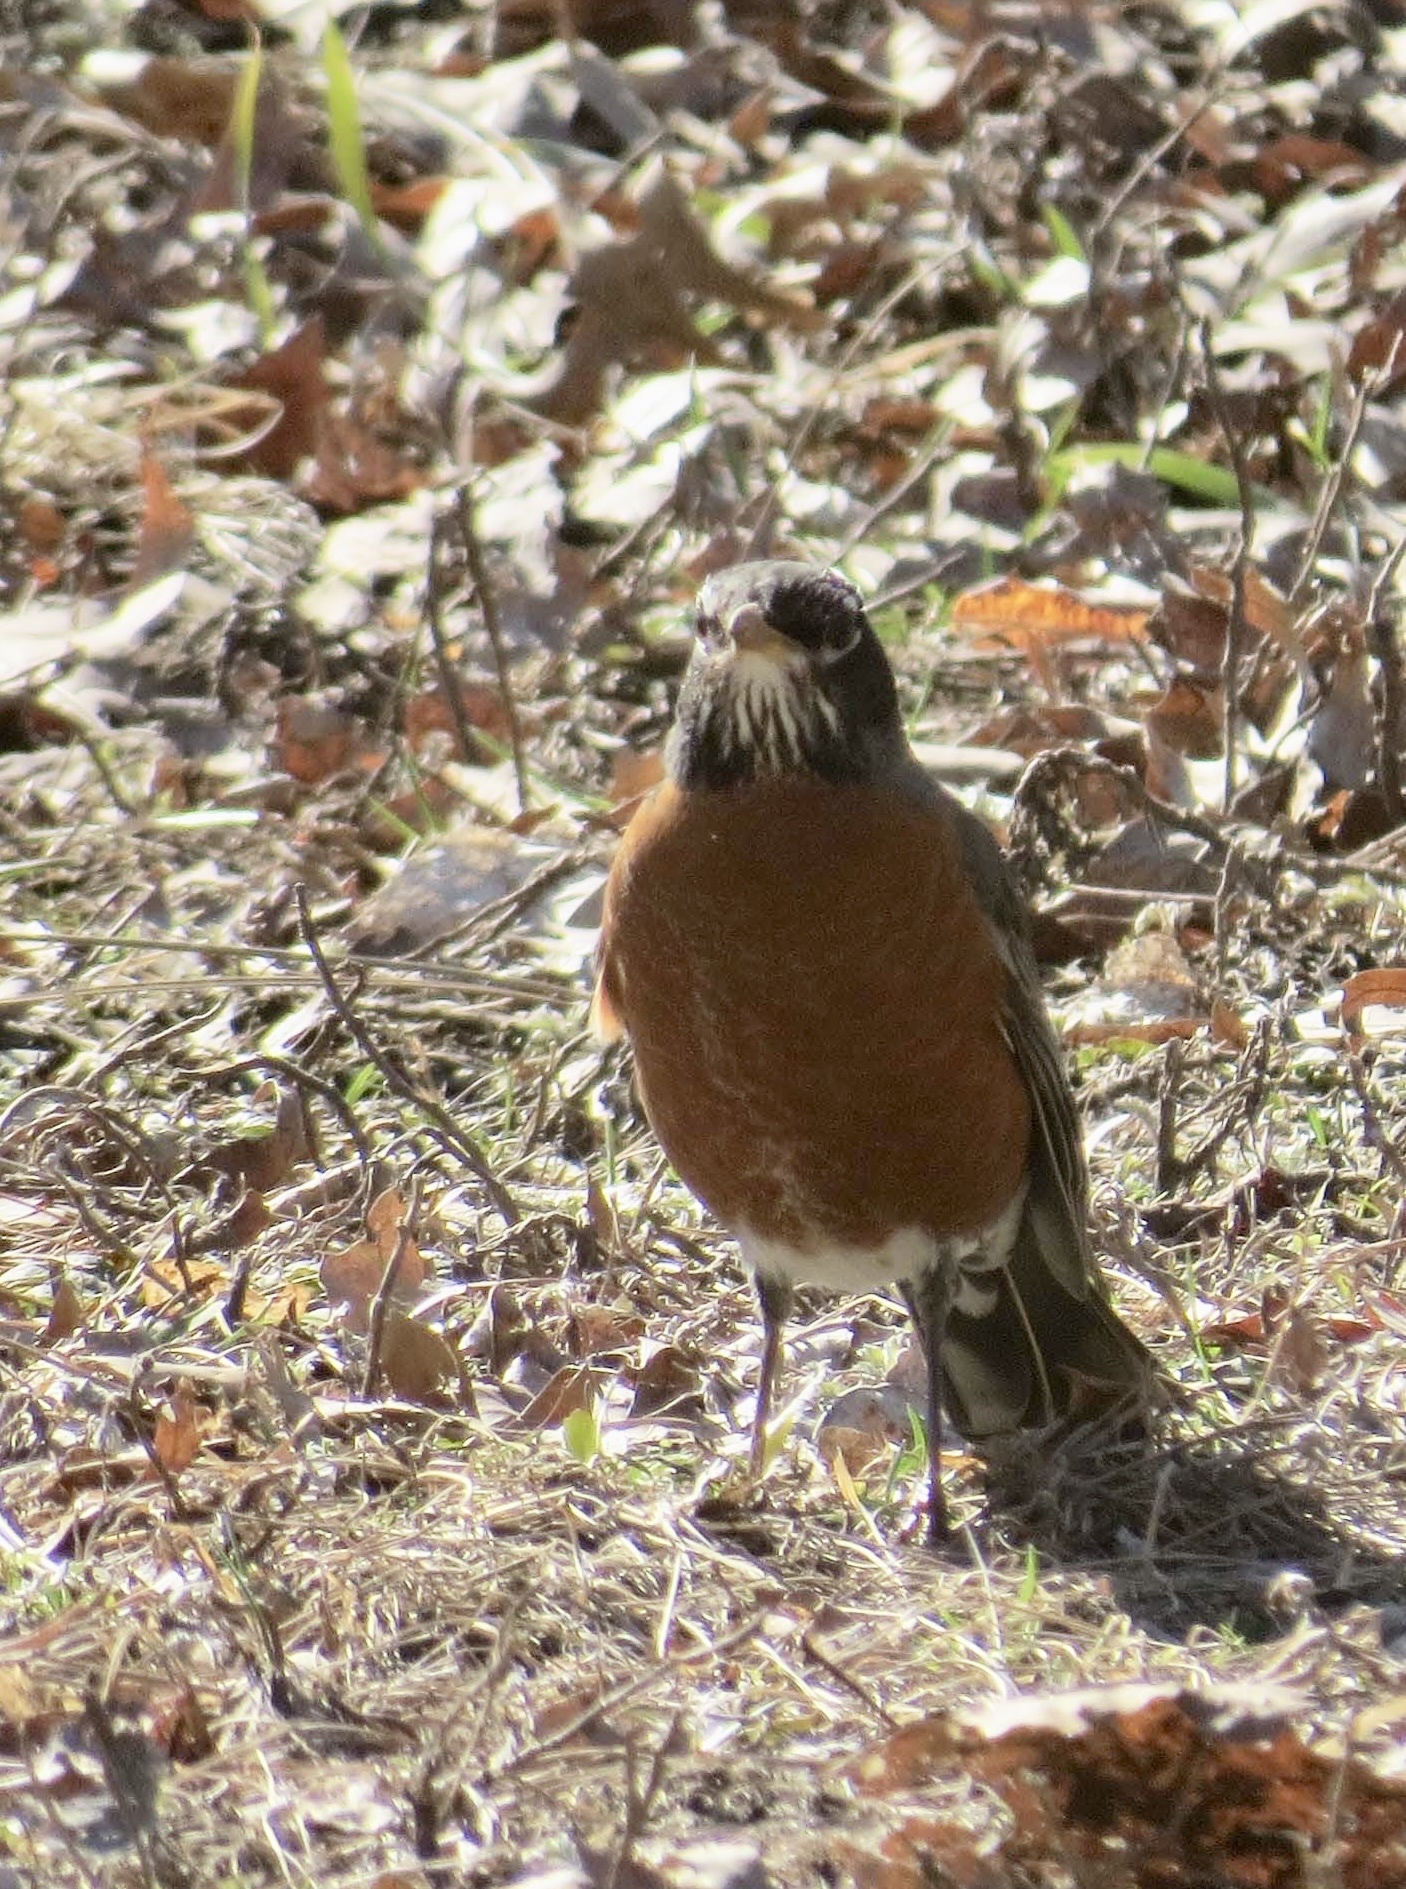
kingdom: Animalia
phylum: Chordata
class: Aves
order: Passeriformes
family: Turdidae
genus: Turdus
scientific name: Turdus migratorius
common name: American robin
